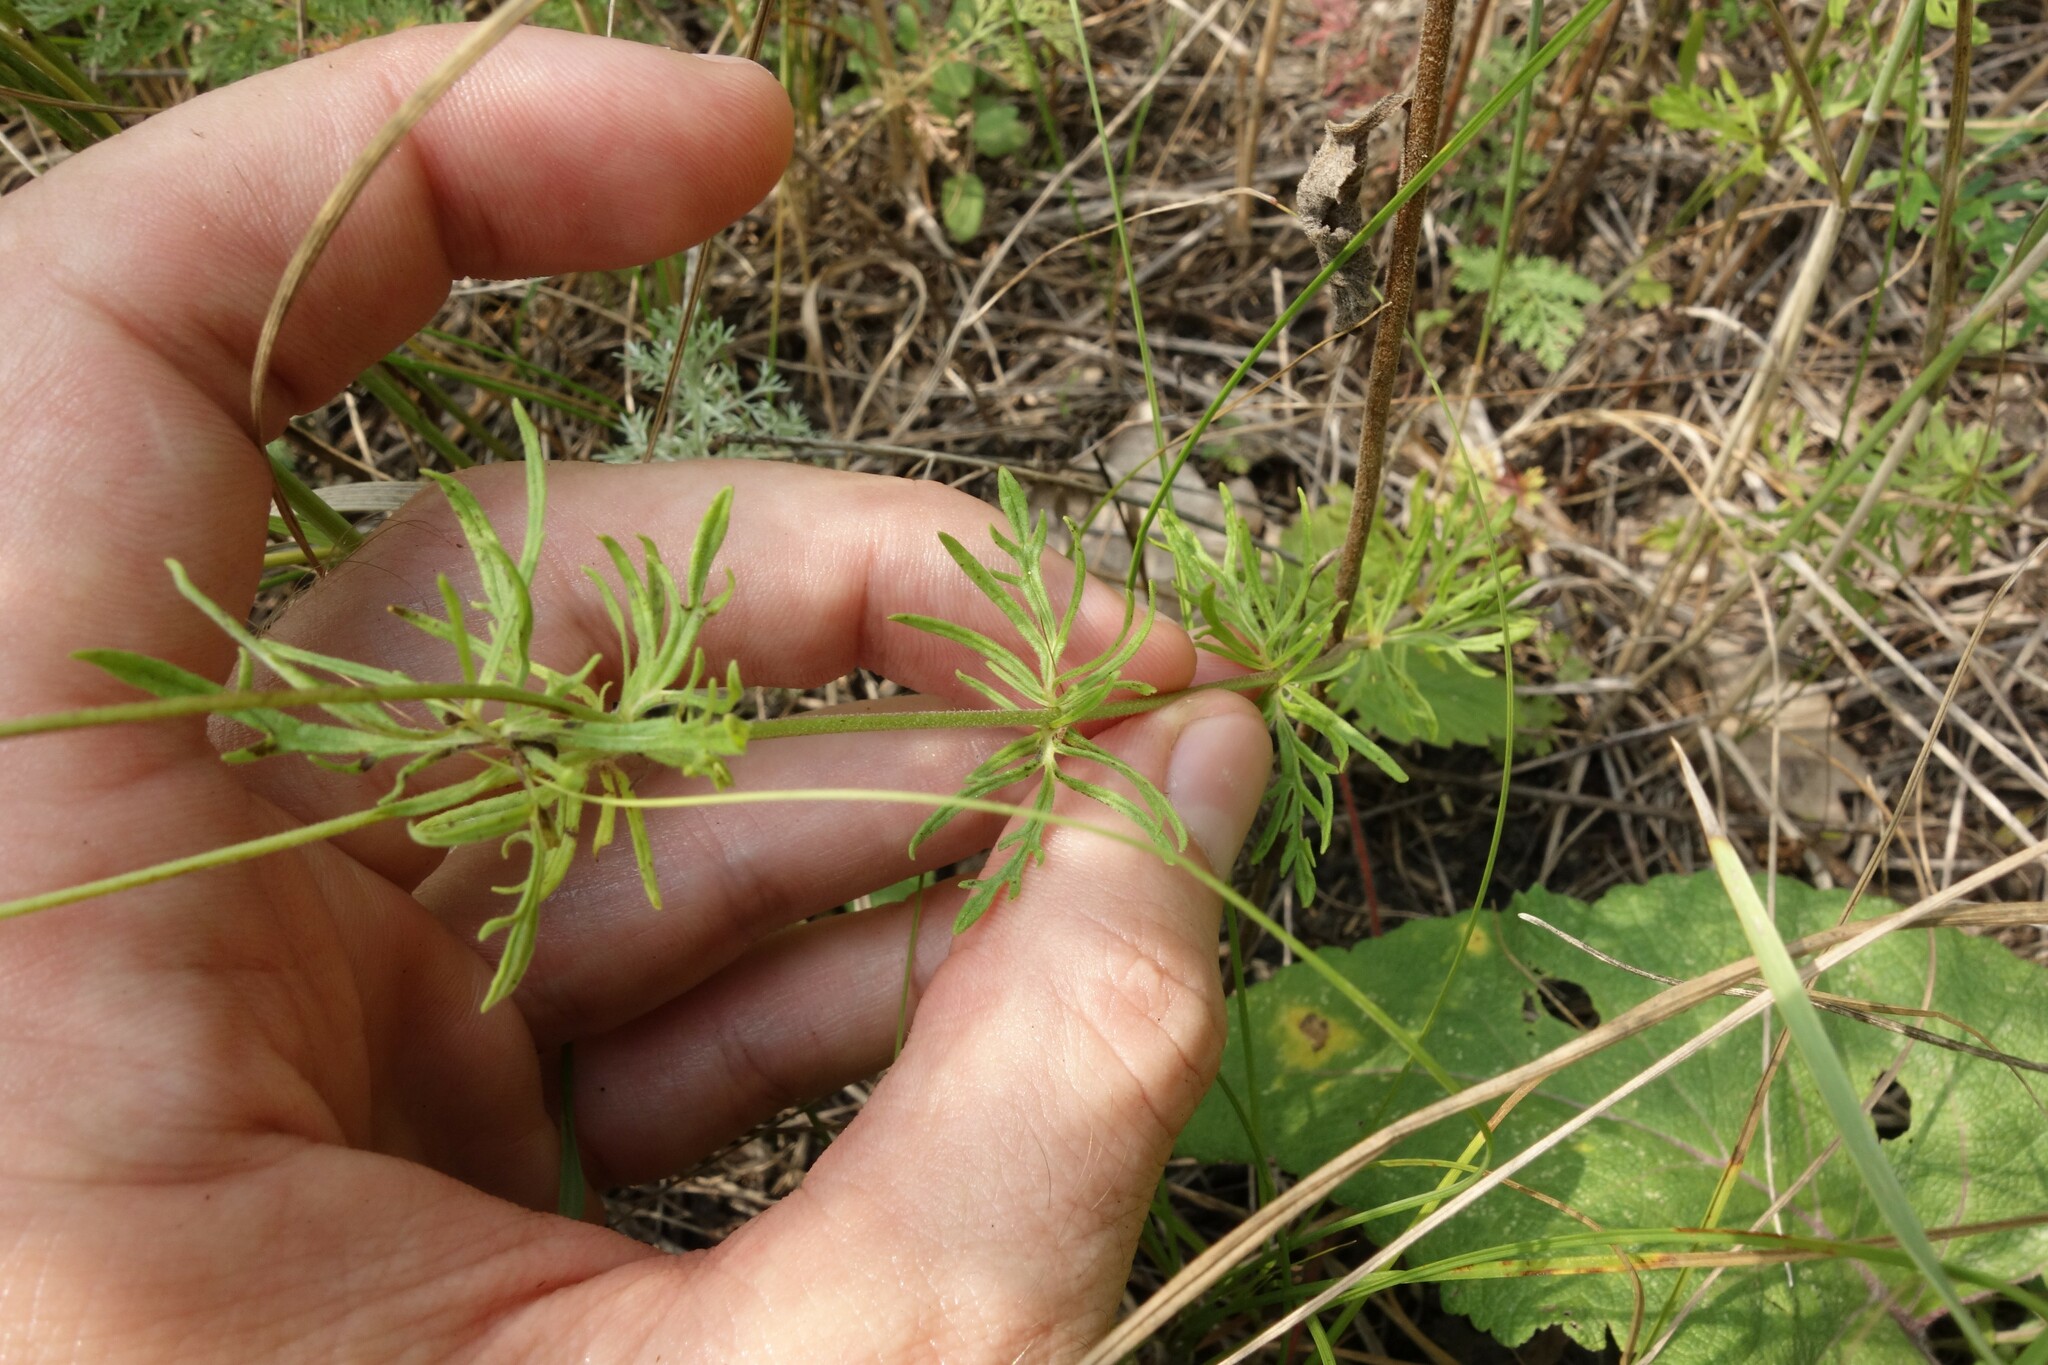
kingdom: Plantae
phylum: Tracheophyta
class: Magnoliopsida
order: Lamiales
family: Plantaginaceae
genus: Veronica
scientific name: Veronica austriaca
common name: Large speedwell
